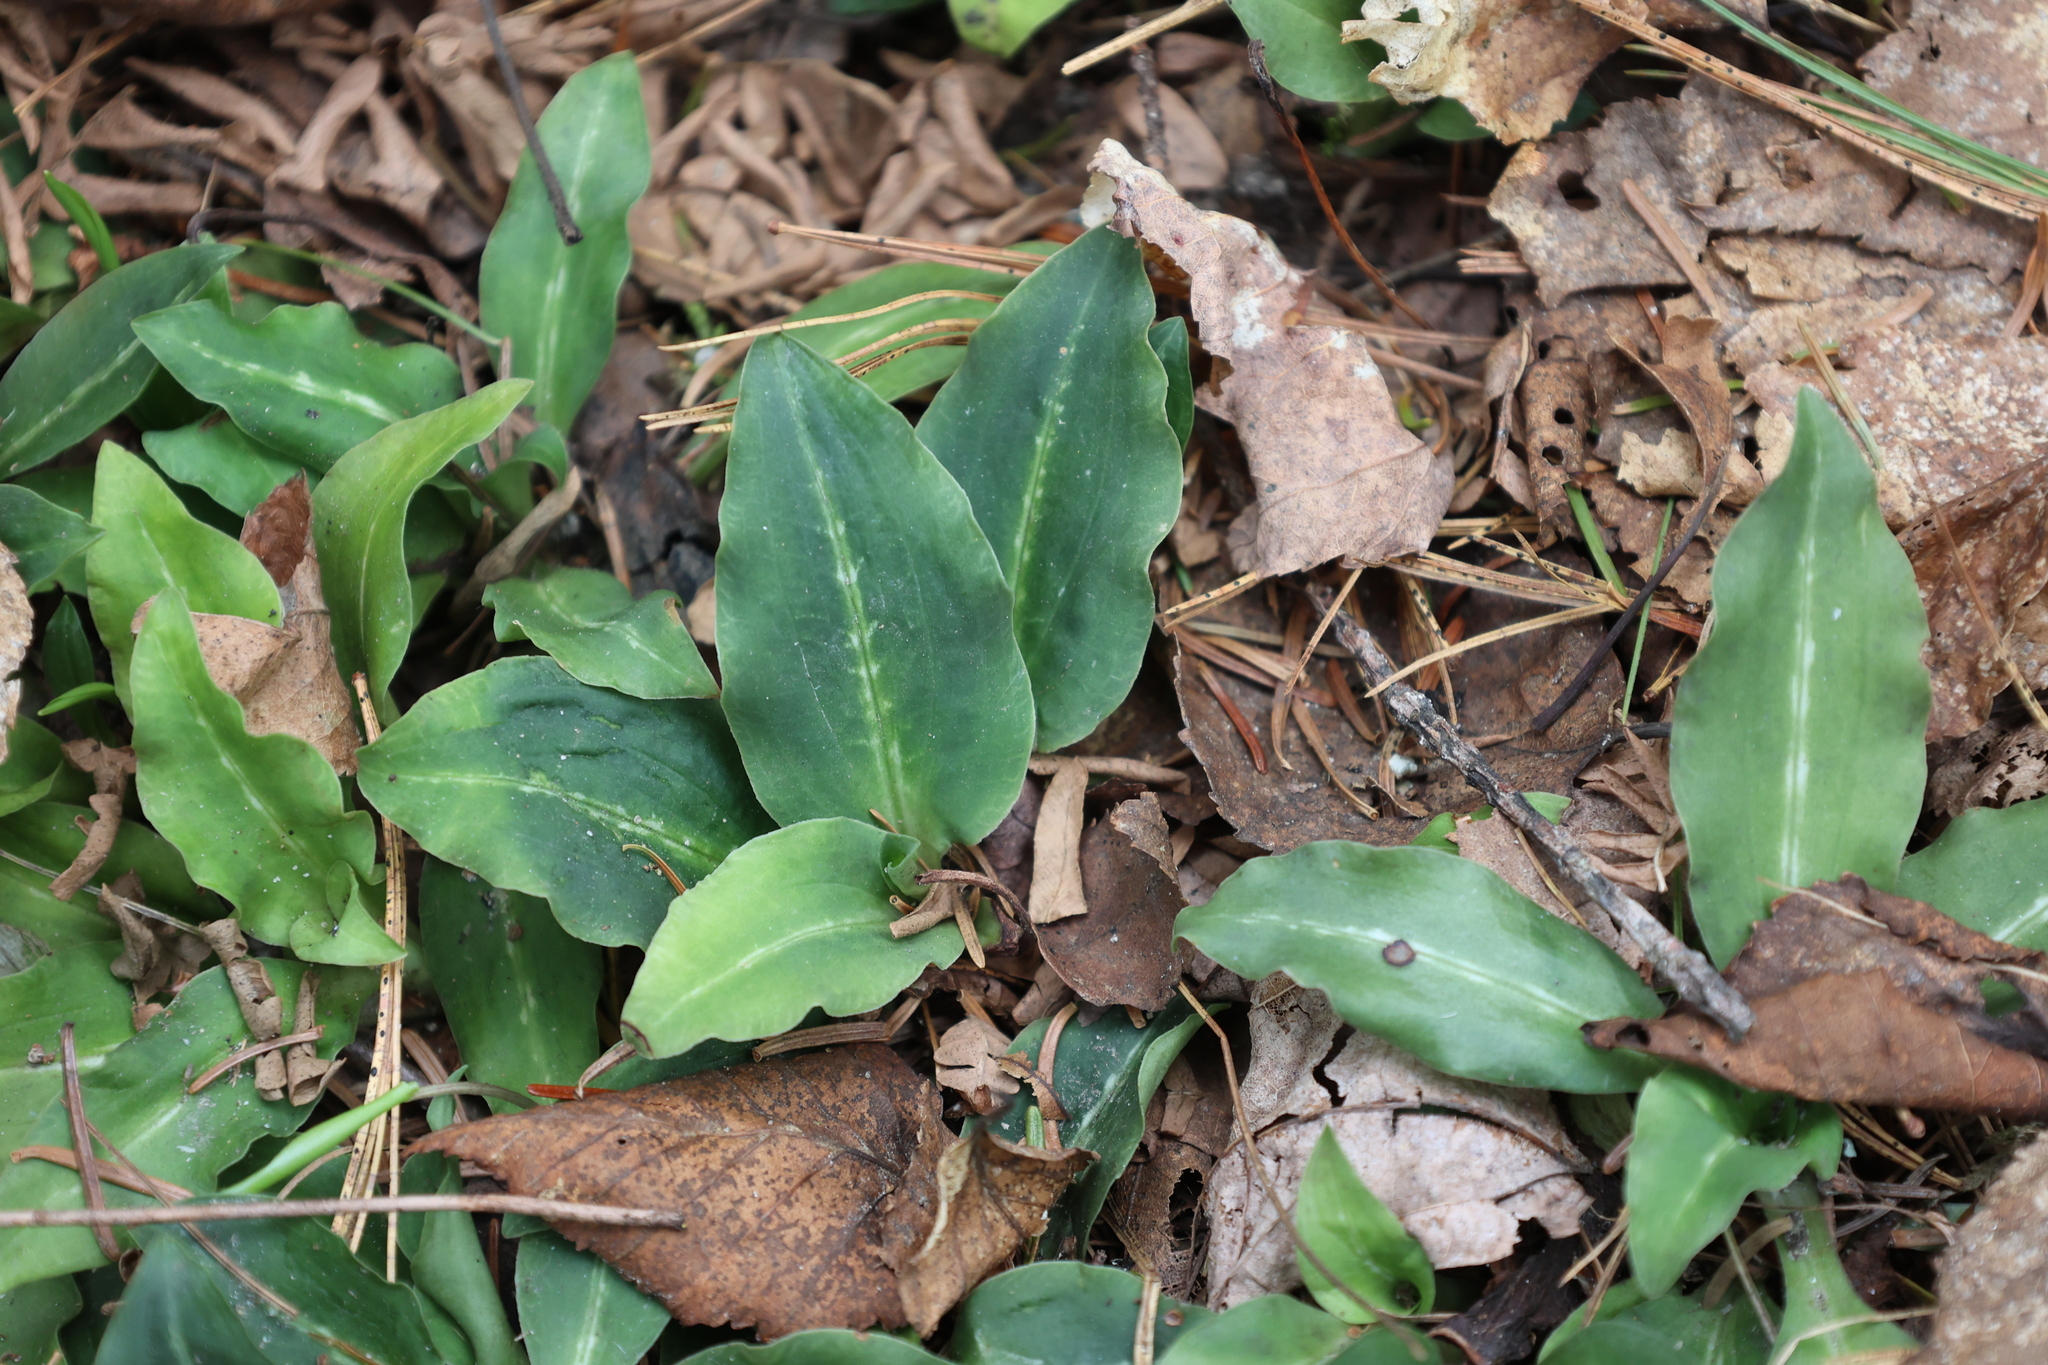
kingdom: Plantae
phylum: Tracheophyta
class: Liliopsida
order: Asparagales
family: Orchidaceae
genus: Goodyera
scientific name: Goodyera oblongifolia
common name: Giant rattlesnake-plantain
